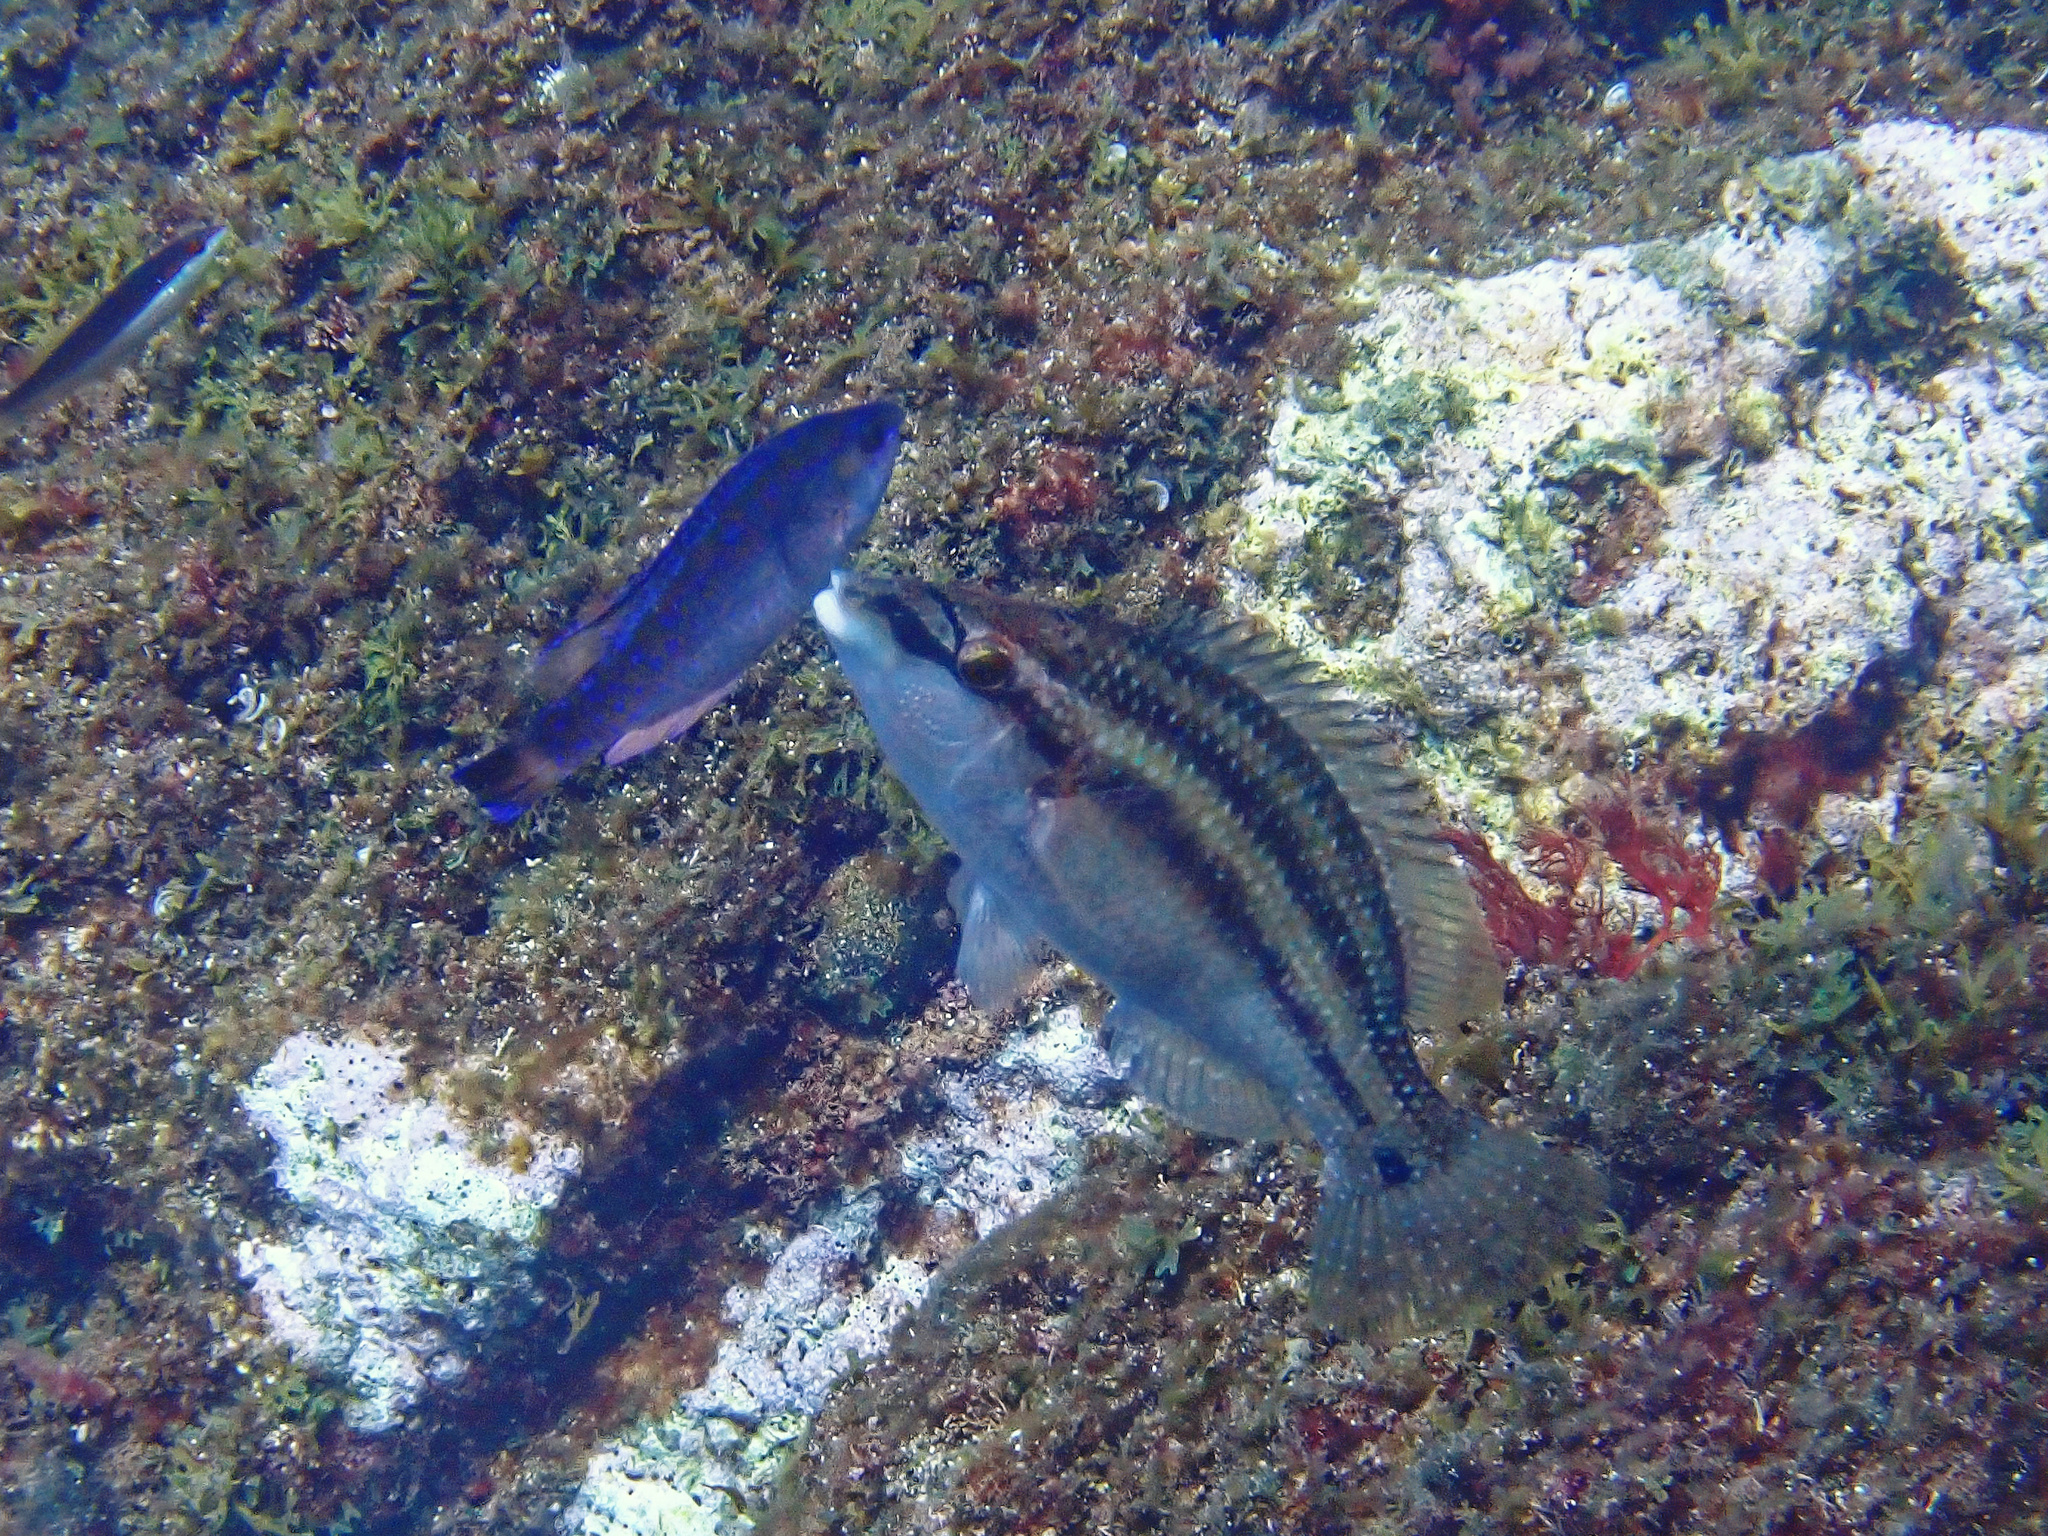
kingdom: Animalia
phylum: Chordata
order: Perciformes
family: Labridae
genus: Centrolabrus
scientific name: Centrolabrus melanocercus
